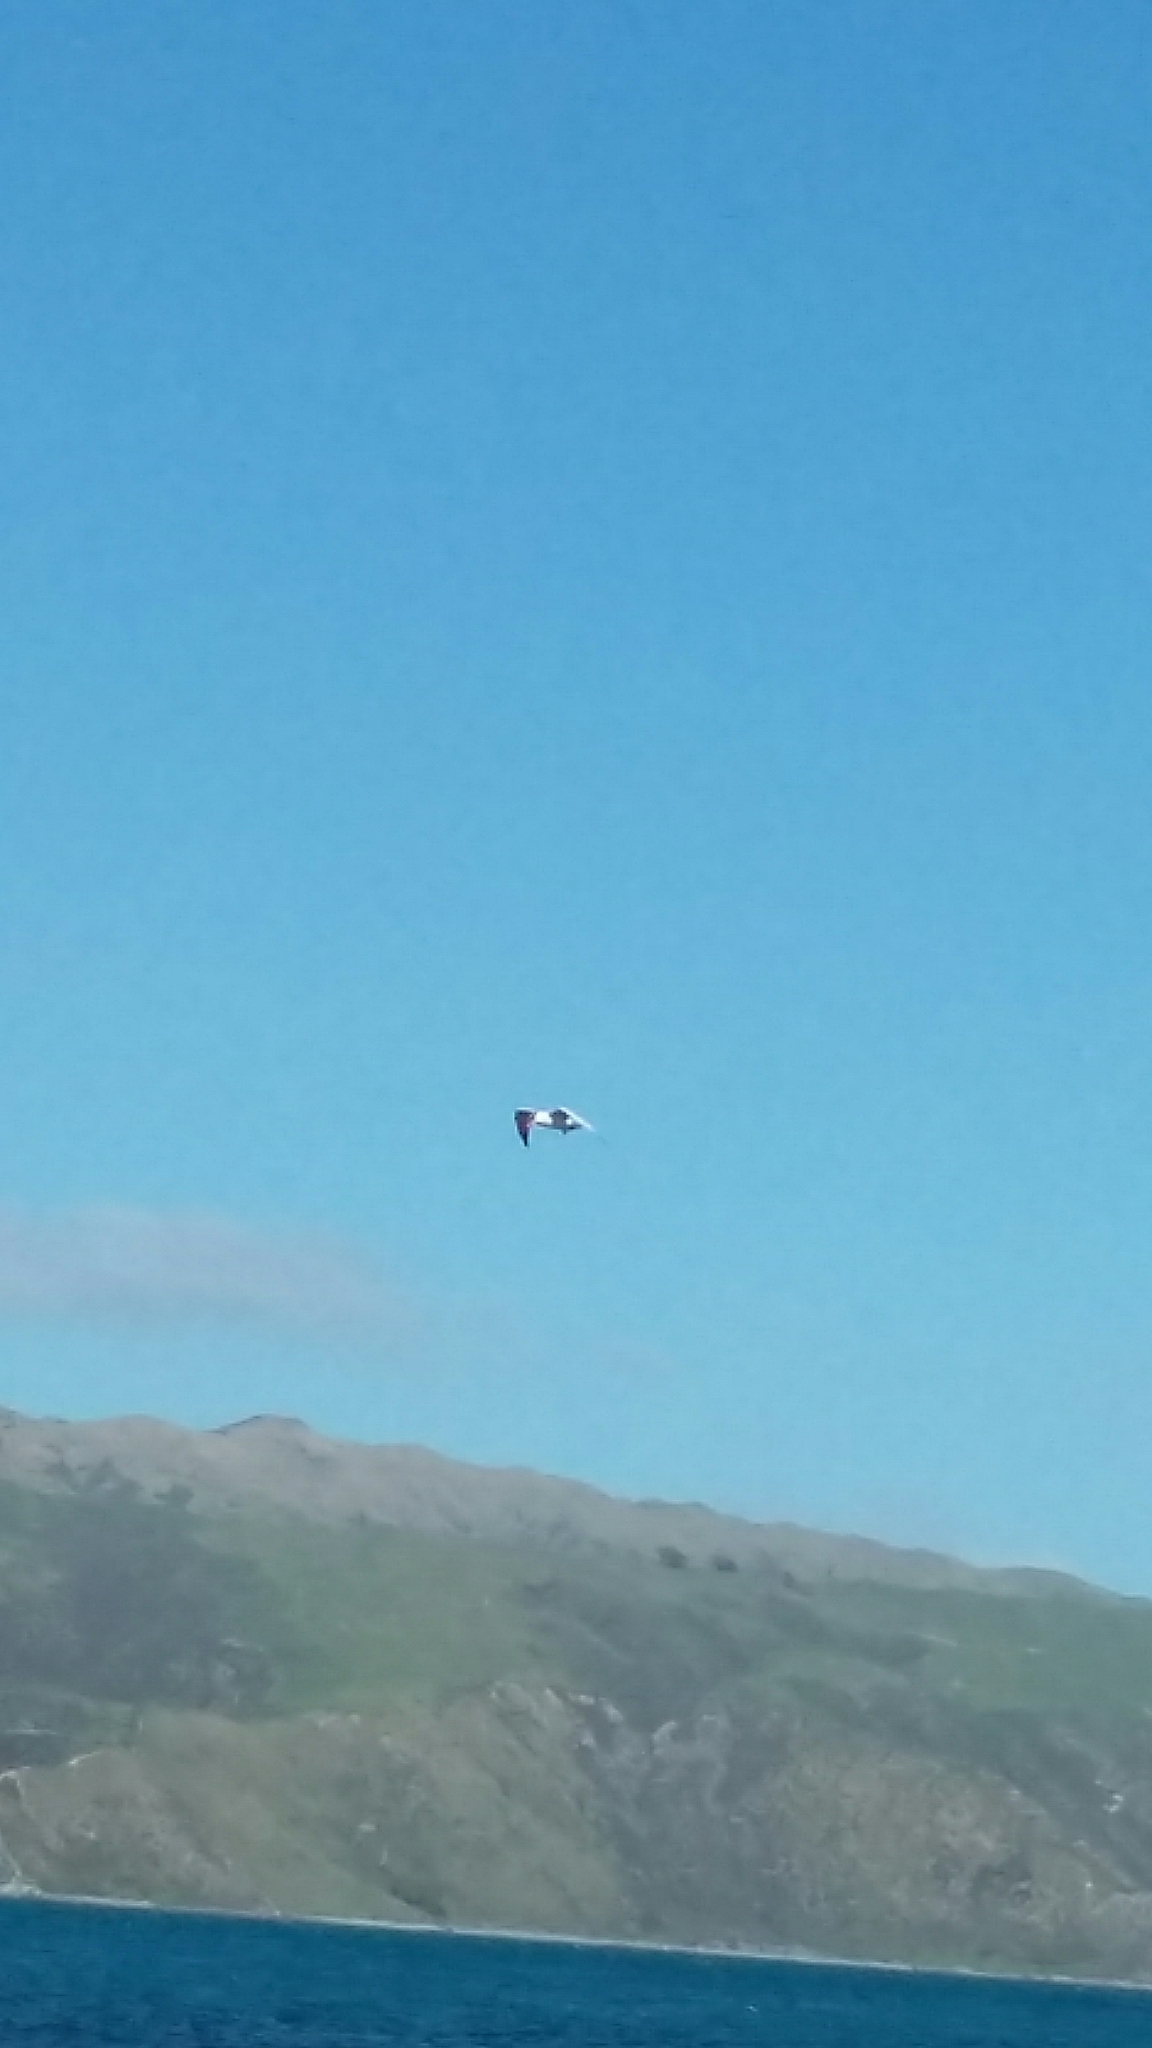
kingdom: Animalia
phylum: Chordata
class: Aves
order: Charadriiformes
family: Laridae
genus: Hydroprogne
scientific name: Hydroprogne caspia
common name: Caspian tern
